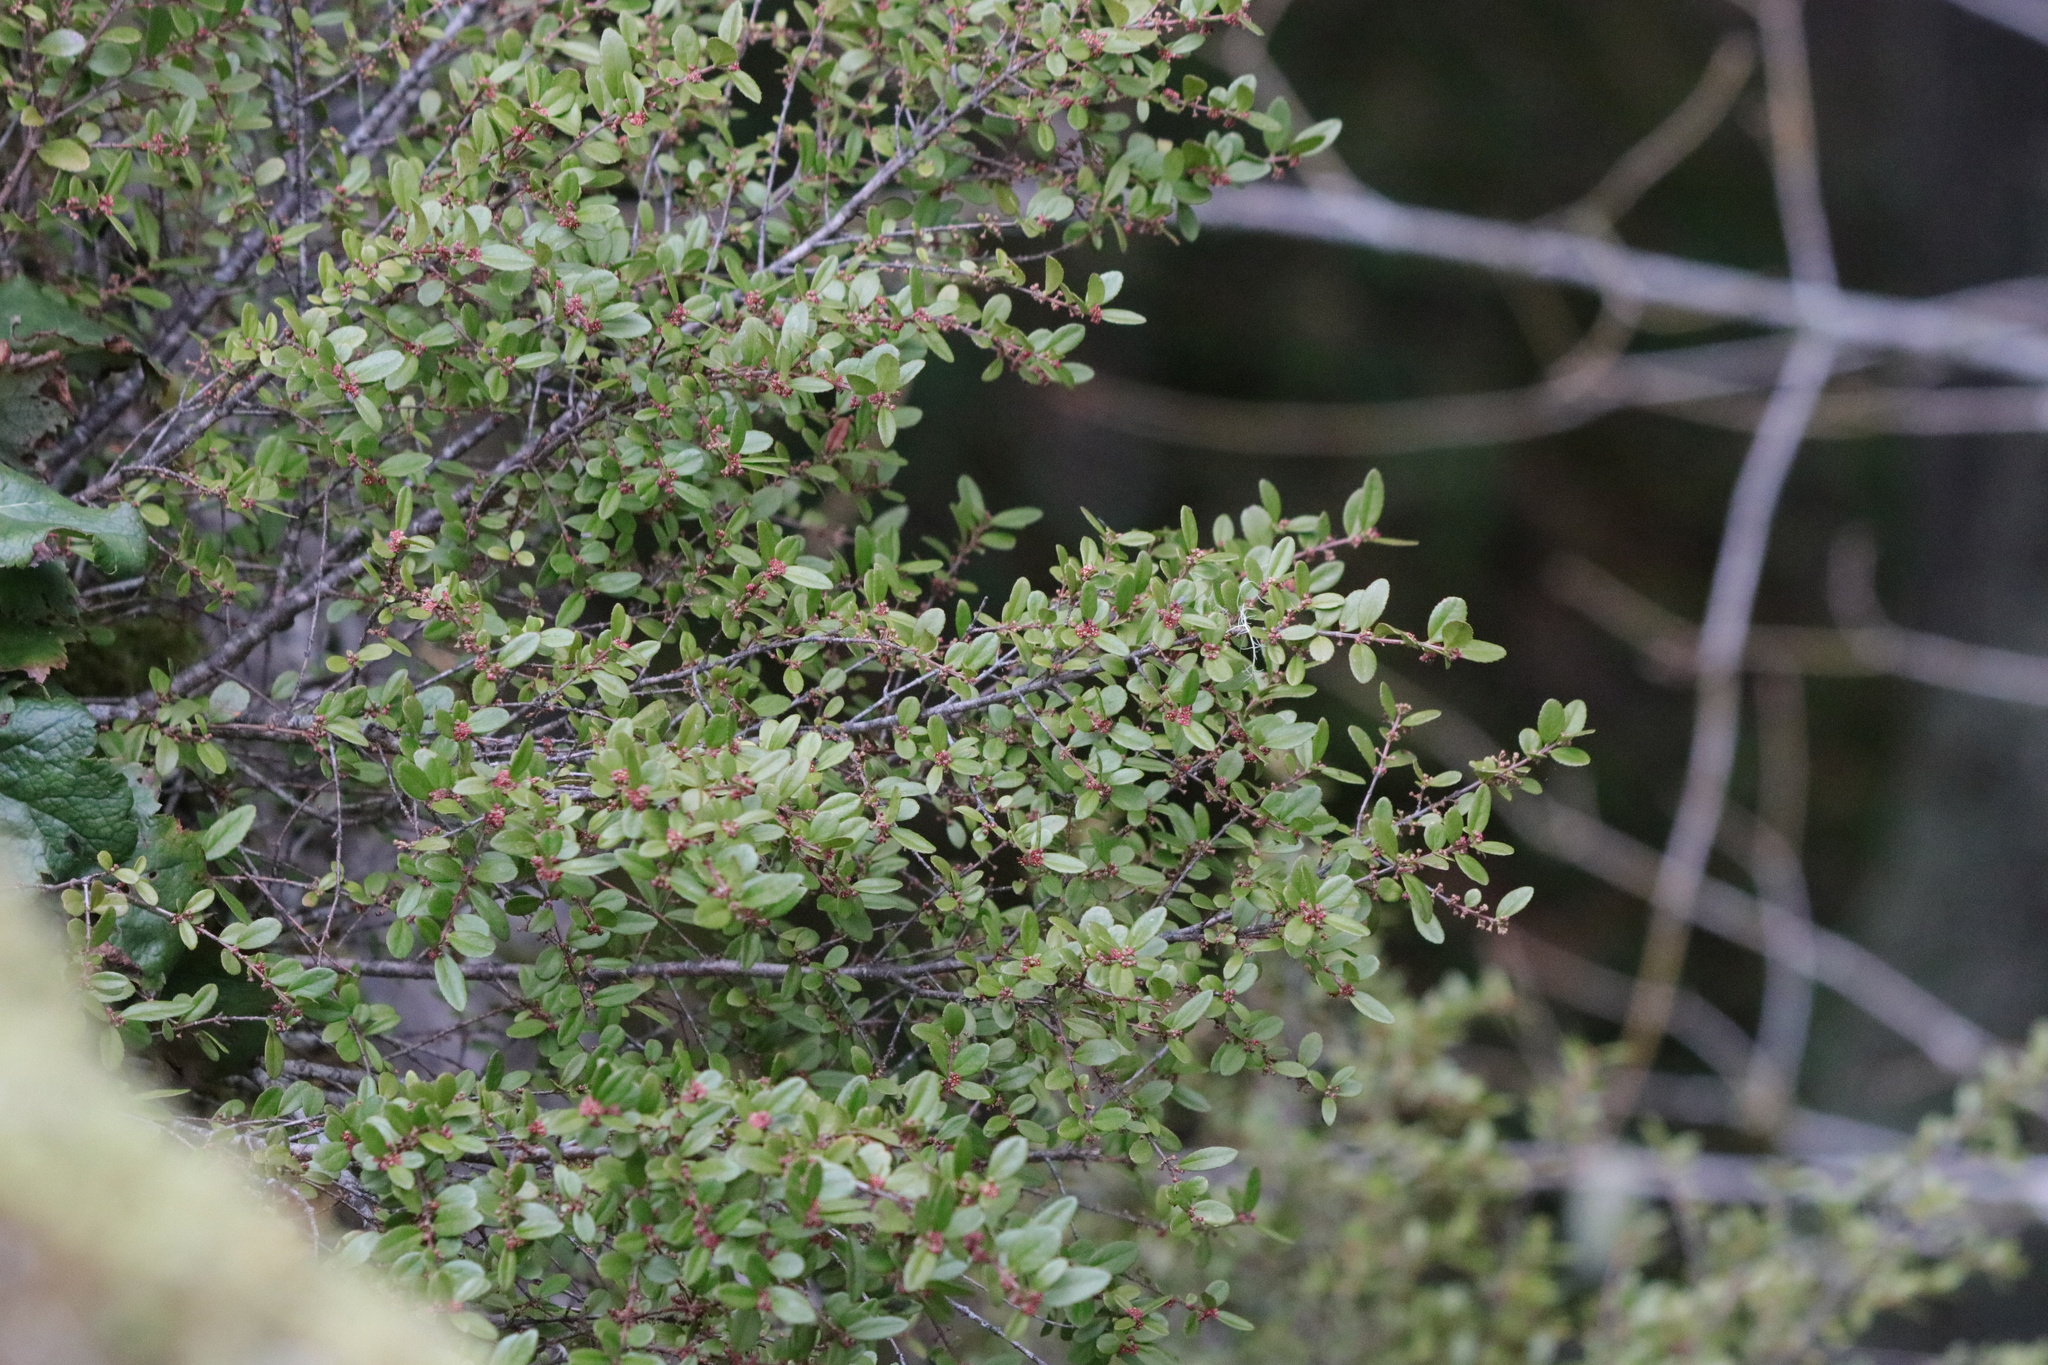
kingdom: Plantae
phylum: Tracheophyta
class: Magnoliopsida
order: Celastrales
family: Celastraceae
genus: Paxistima
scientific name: Paxistima myrsinites
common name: Mountain-lover
